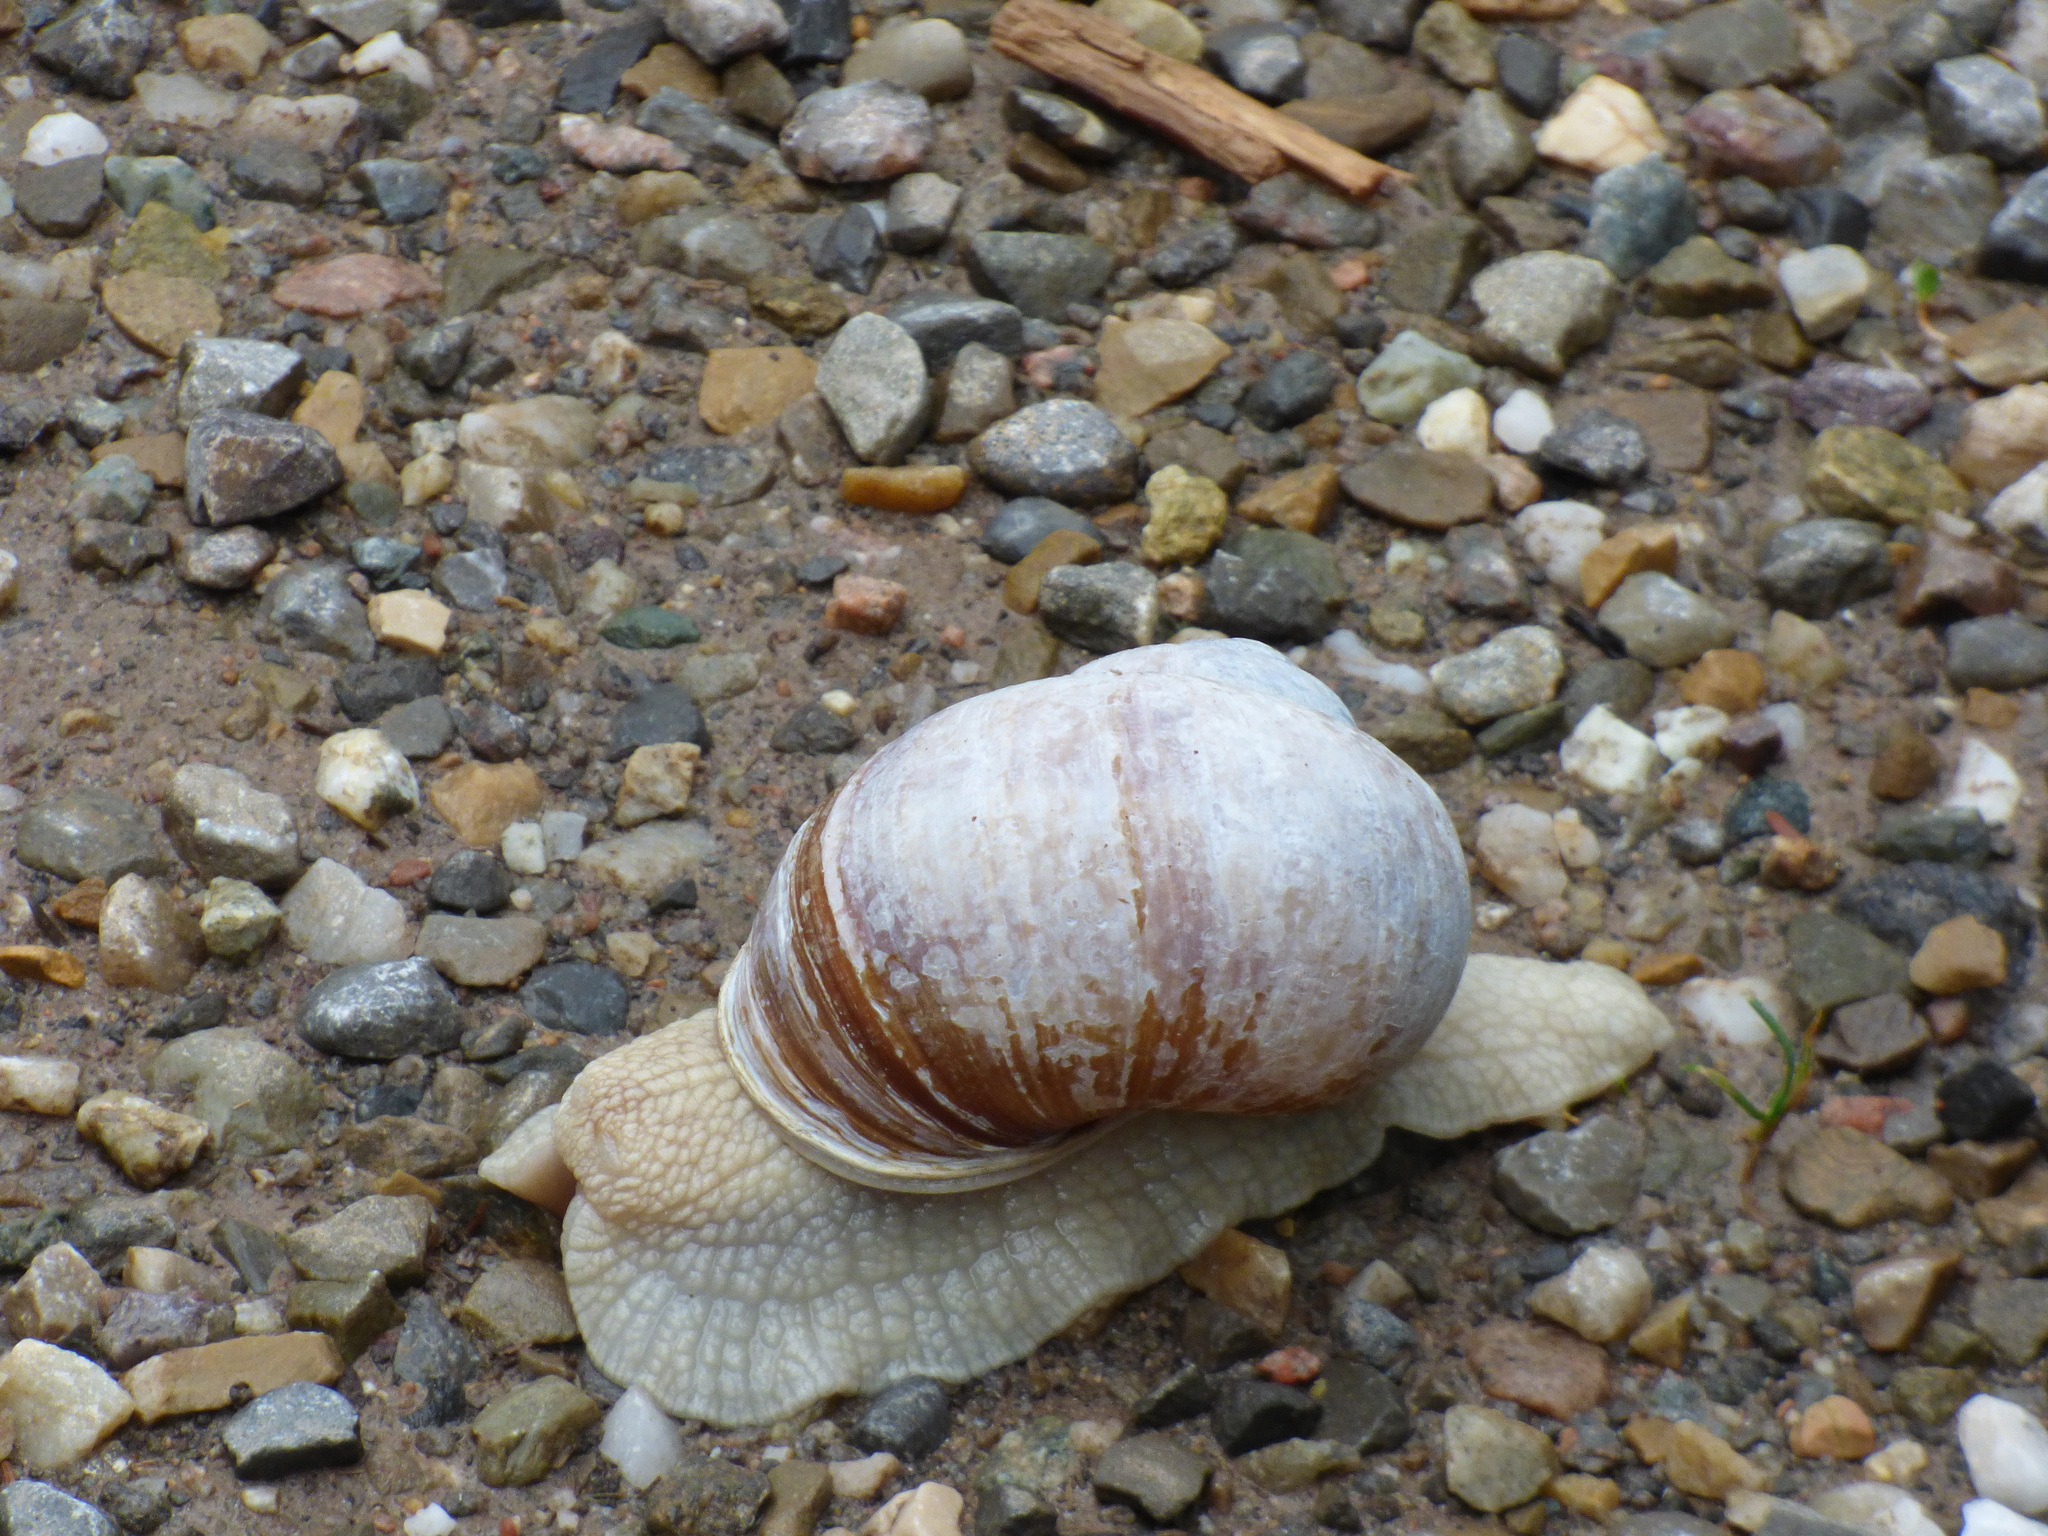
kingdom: Animalia
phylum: Mollusca
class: Gastropoda
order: Stylommatophora
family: Helicidae
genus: Helix
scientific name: Helix pomatia
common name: Roman snail
